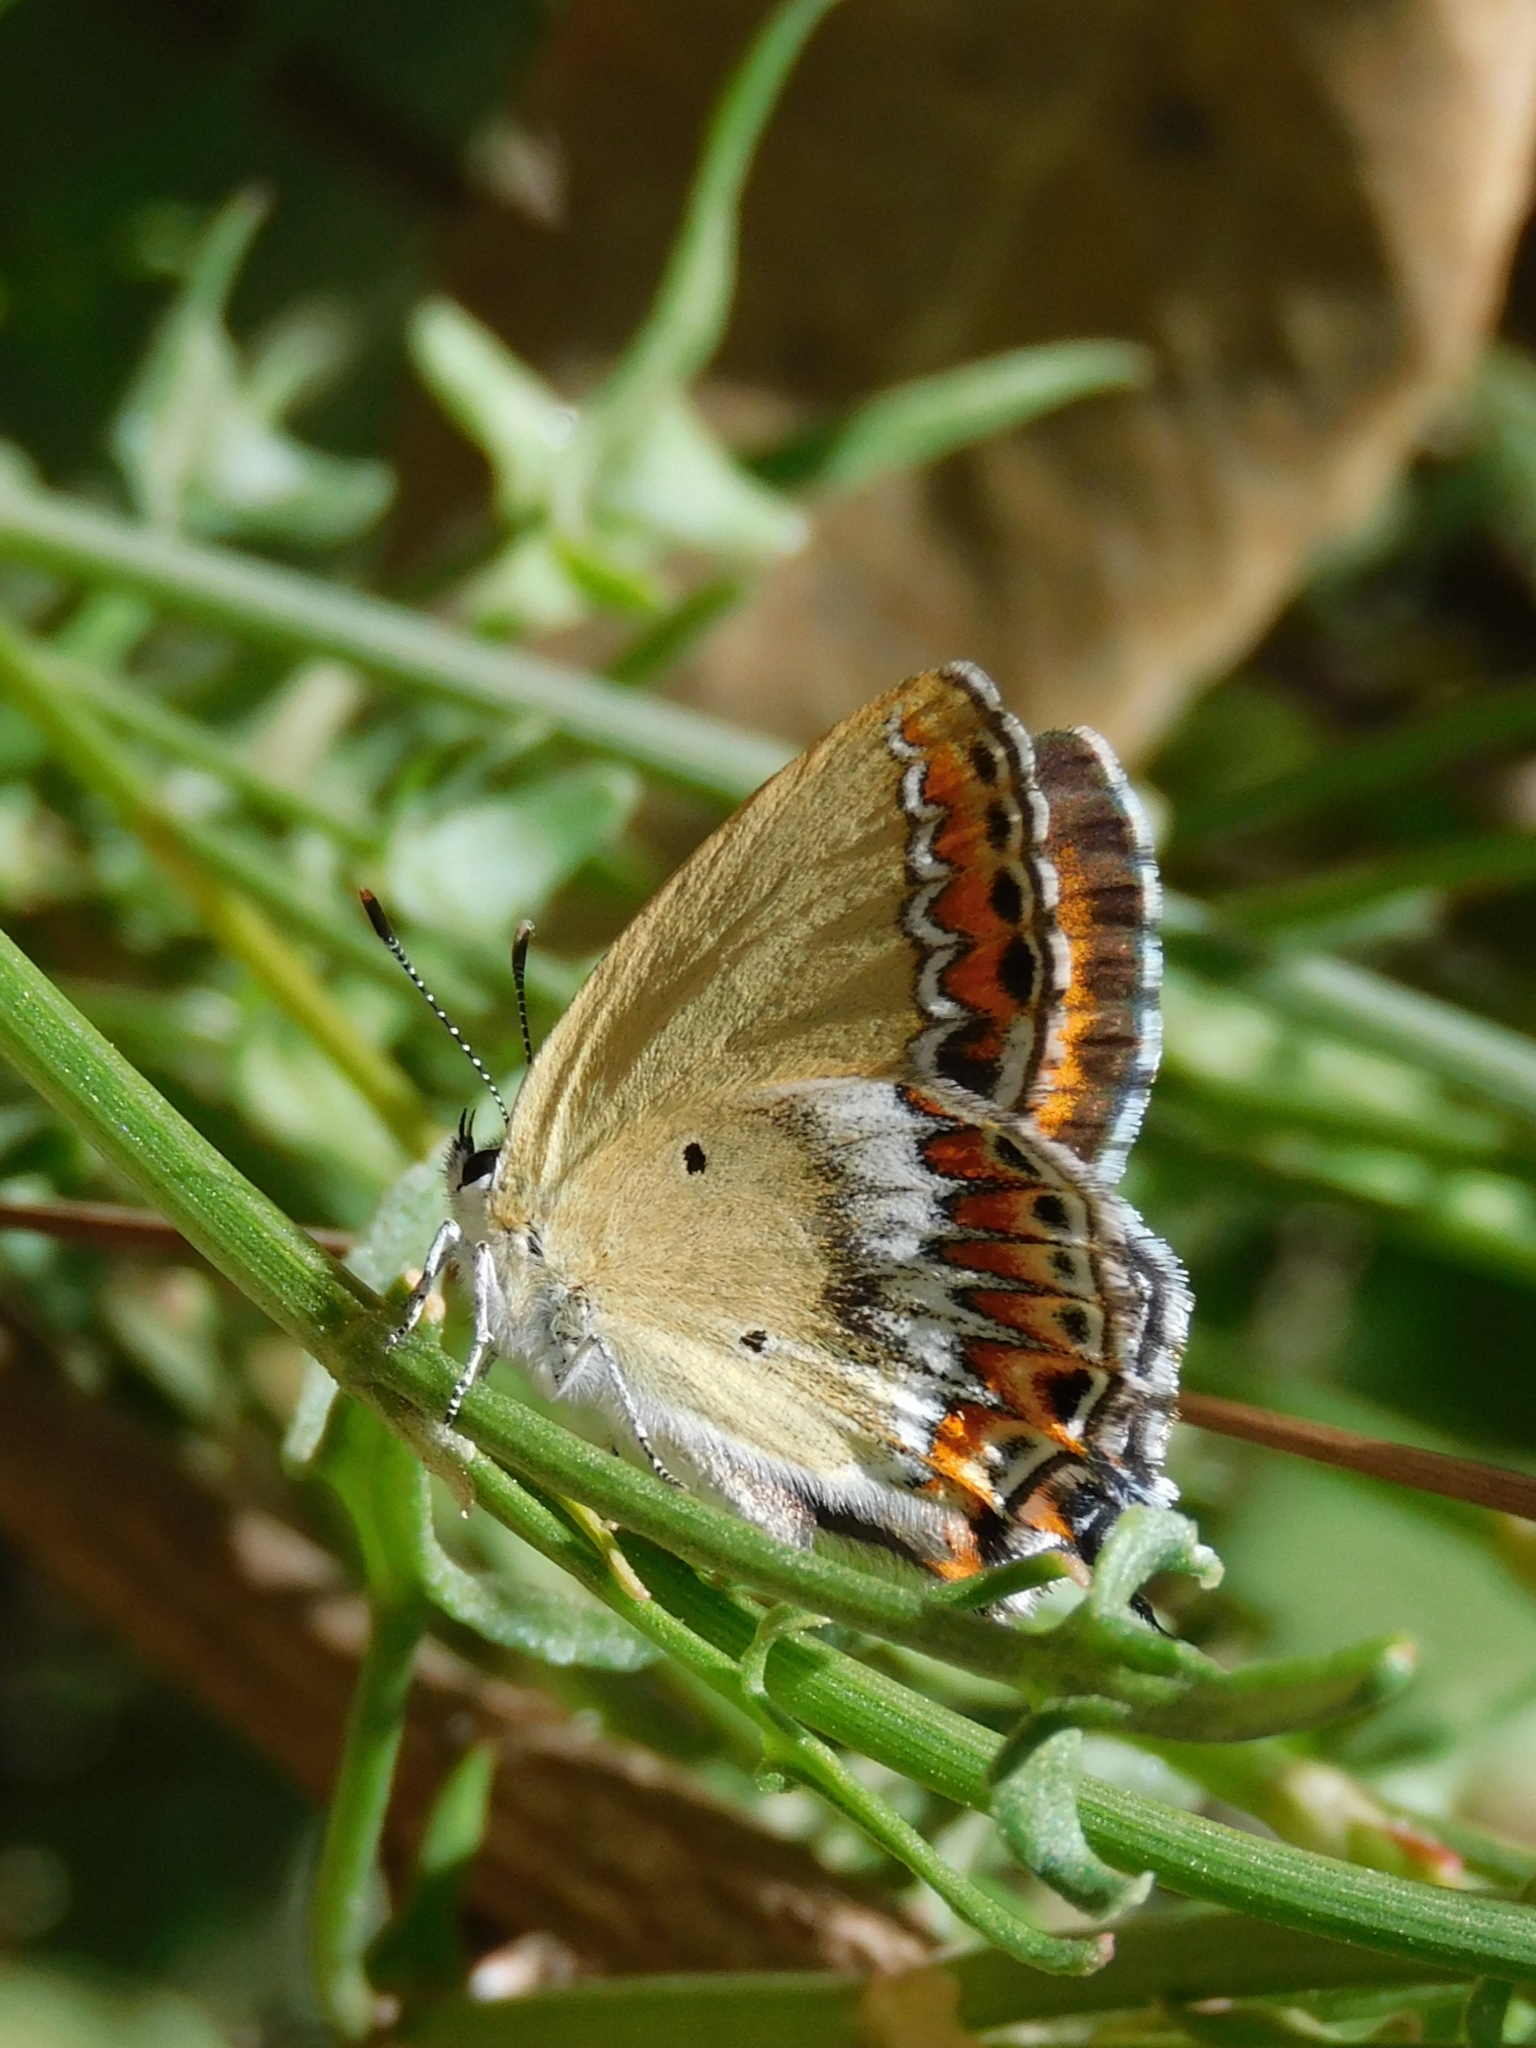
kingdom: Animalia
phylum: Arthropoda
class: Insecta
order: Lepidoptera
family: Lycaenidae
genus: Heliophorus
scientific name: Heliophorus sena
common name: Sorrel sapphire
